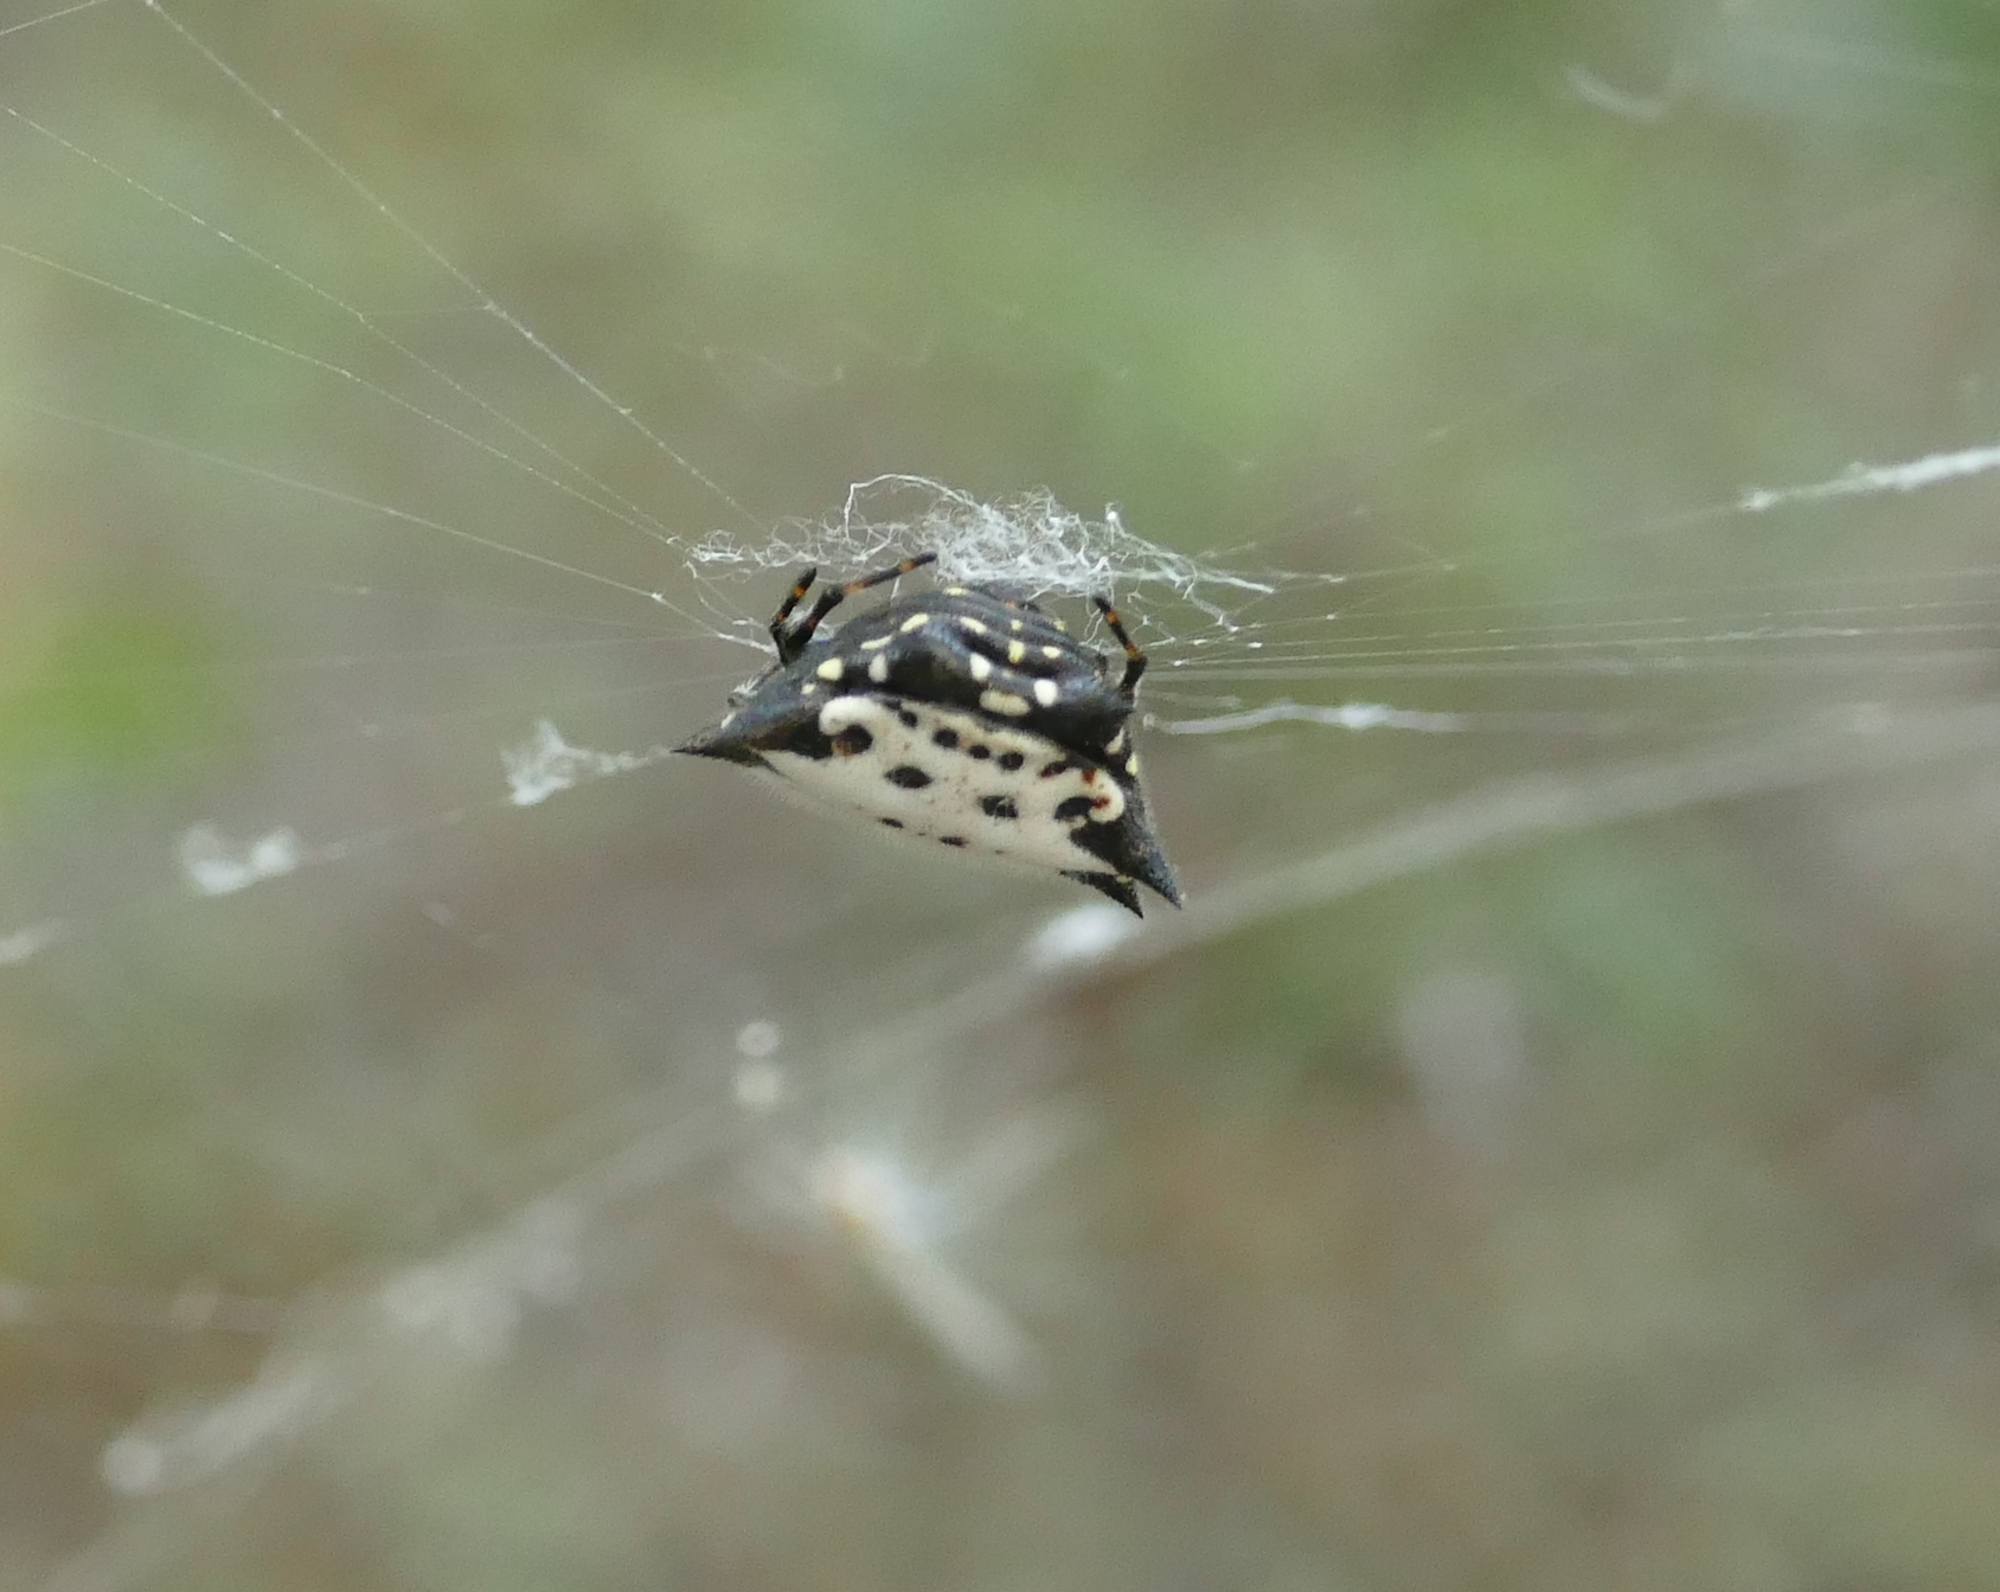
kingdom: Animalia
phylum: Arthropoda
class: Arachnida
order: Araneae
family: Araneidae
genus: Gasteracantha
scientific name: Gasteracantha cancriformis
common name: Orb weavers
